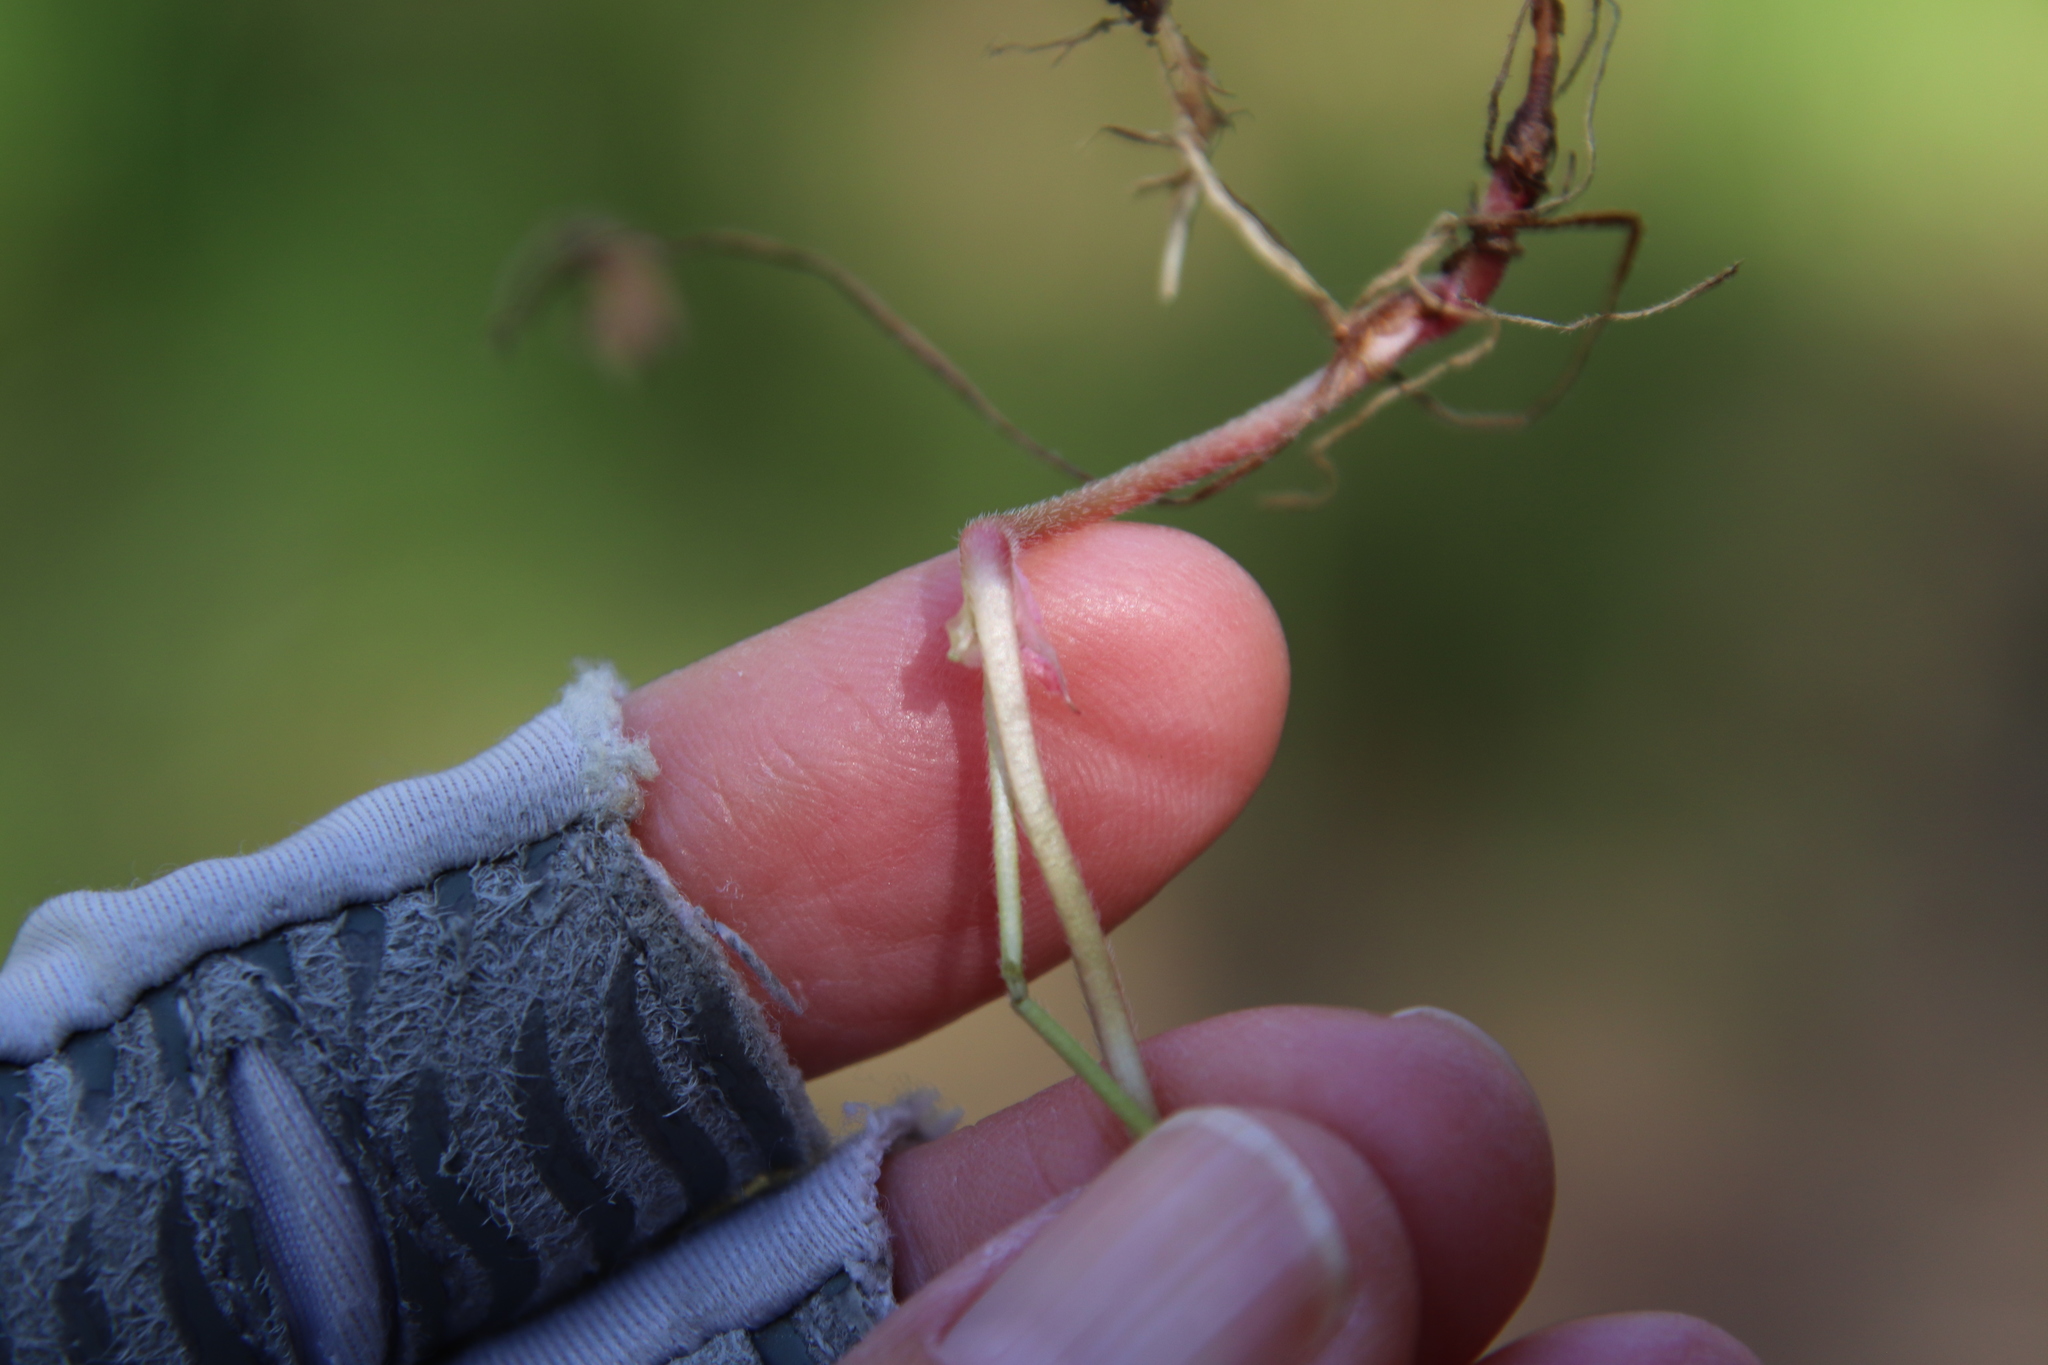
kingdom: Plantae
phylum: Tracheophyta
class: Magnoliopsida
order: Geraniales
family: Geraniaceae
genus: Geranium
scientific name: Geranium
